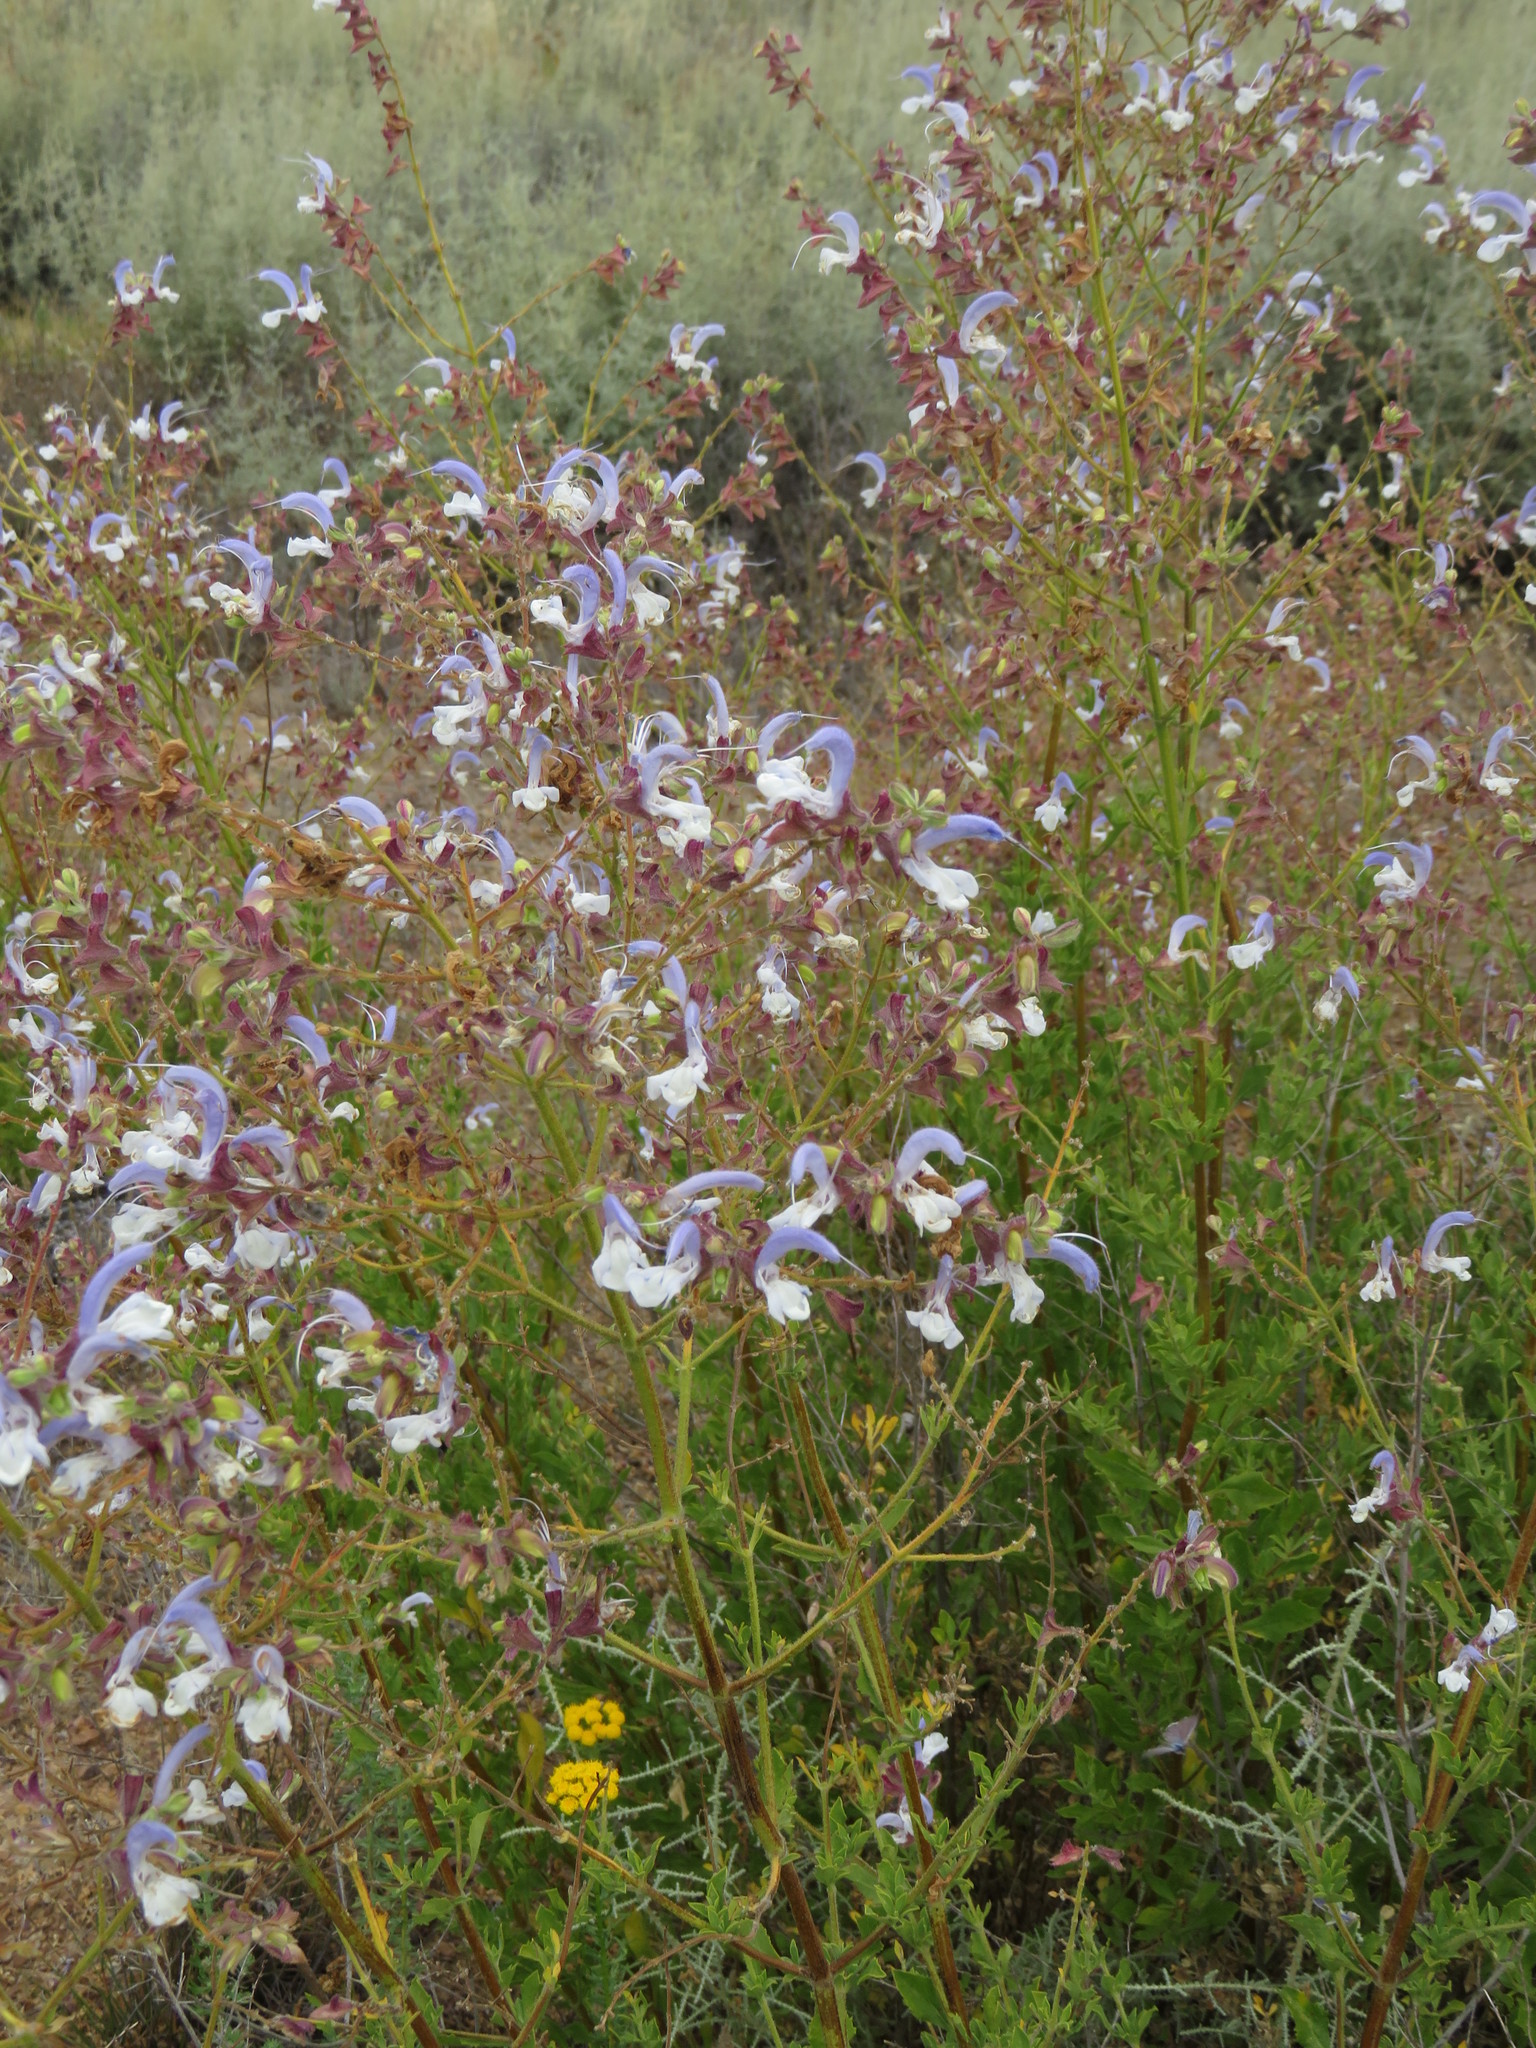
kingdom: Plantae
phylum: Tracheophyta
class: Magnoliopsida
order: Lamiales
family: Lamiaceae
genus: Salvia
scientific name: Salvia chamelaeagnea
